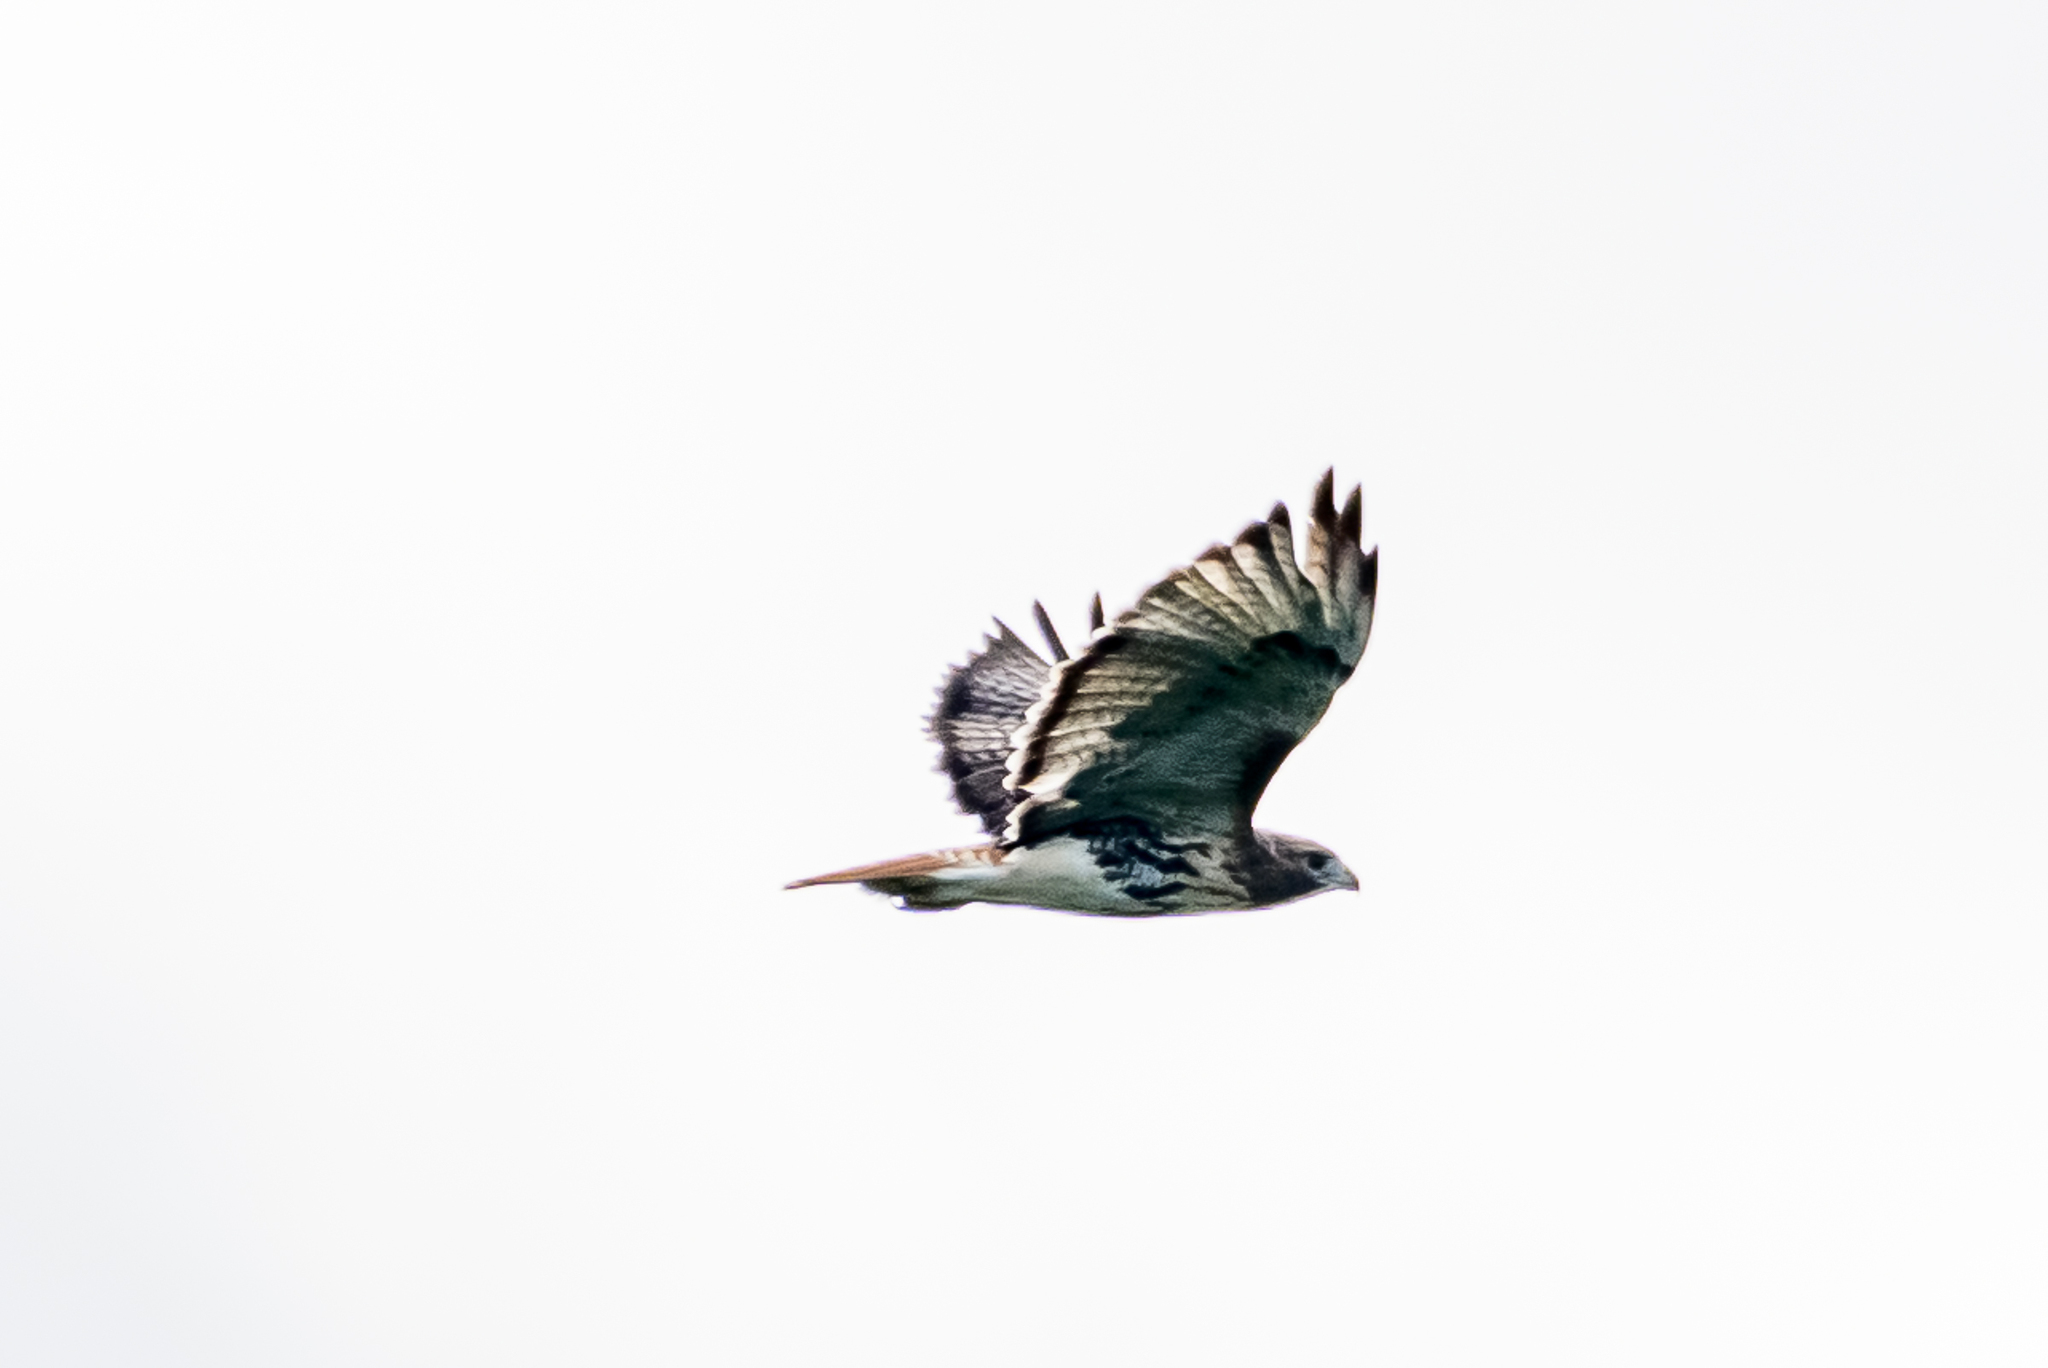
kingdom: Animalia
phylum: Chordata
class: Aves
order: Accipitriformes
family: Accipitridae
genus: Buteo
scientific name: Buteo jamaicensis
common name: Red-tailed hawk
